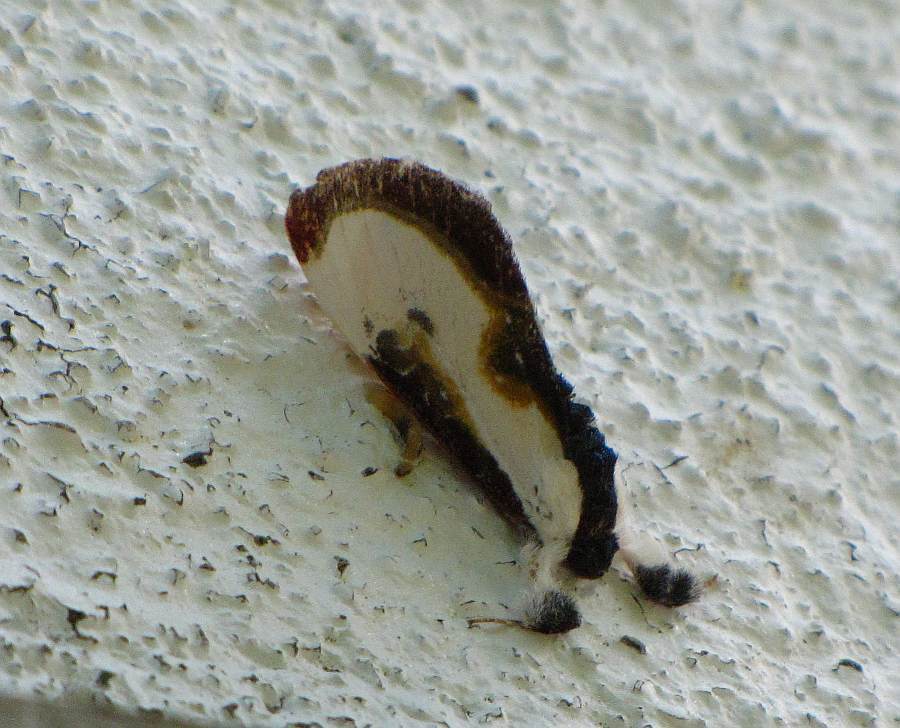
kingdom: Animalia
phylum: Arthropoda
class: Insecta
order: Lepidoptera
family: Noctuidae
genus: Eudryas
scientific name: Eudryas grata
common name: Beautiful wood-nymph
